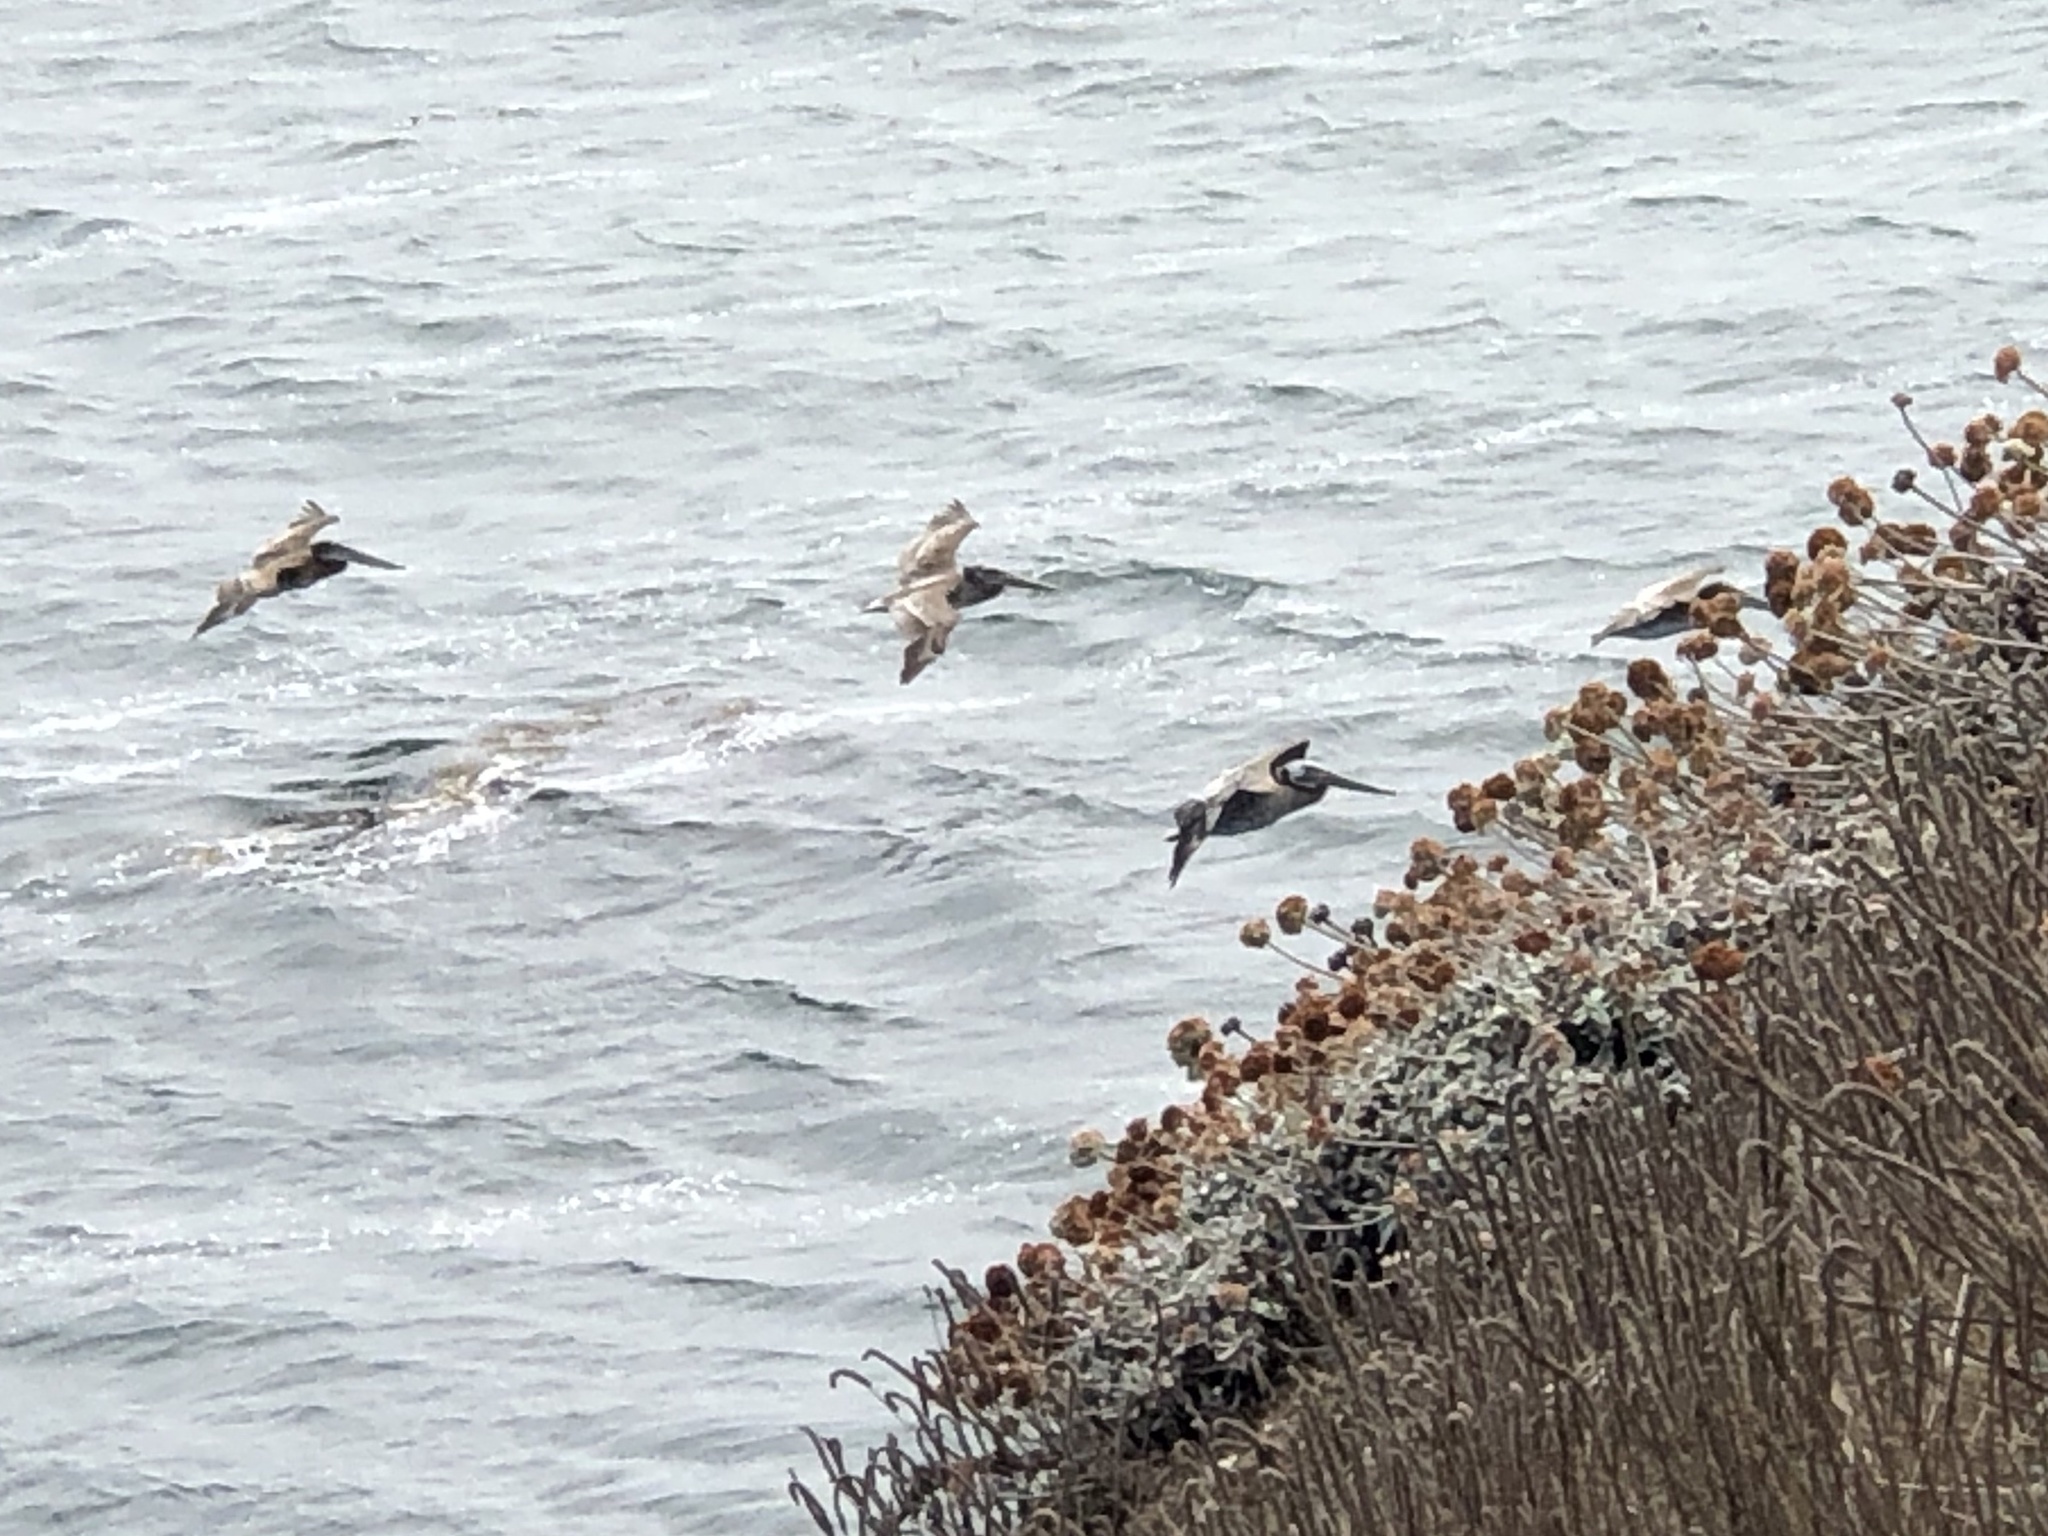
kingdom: Animalia
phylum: Chordata
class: Aves
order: Pelecaniformes
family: Pelecanidae
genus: Pelecanus
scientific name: Pelecanus occidentalis
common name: Brown pelican
